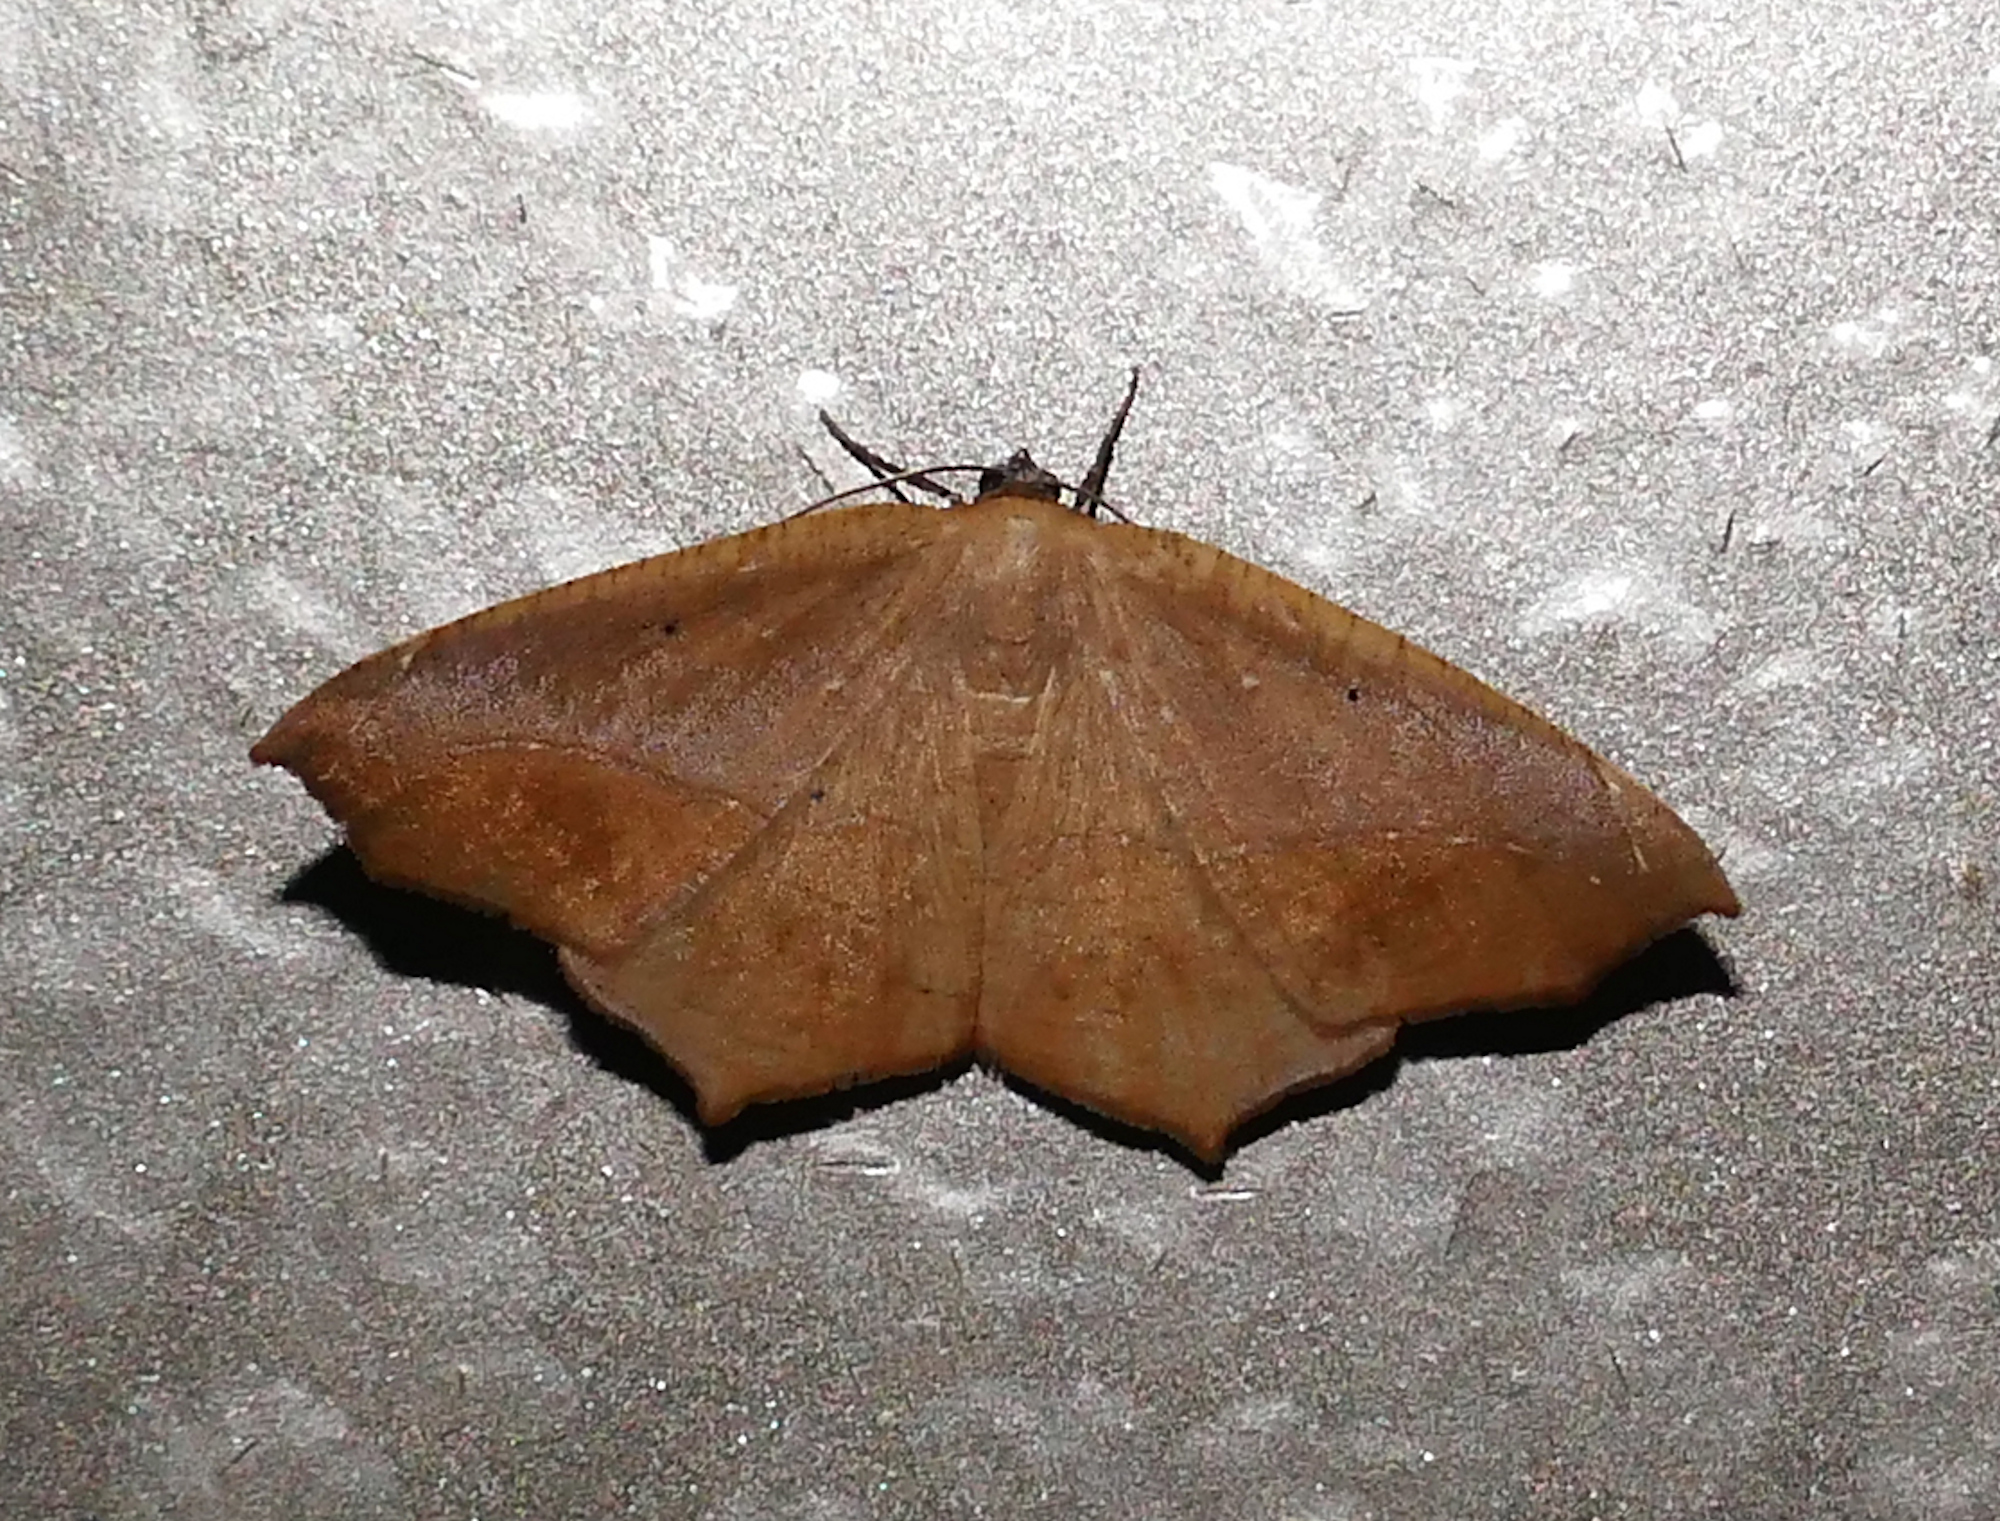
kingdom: Animalia
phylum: Arthropoda
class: Insecta
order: Lepidoptera
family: Geometridae
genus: Prochoerodes
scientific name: Prochoerodes lineola
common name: Large maple spanworm
